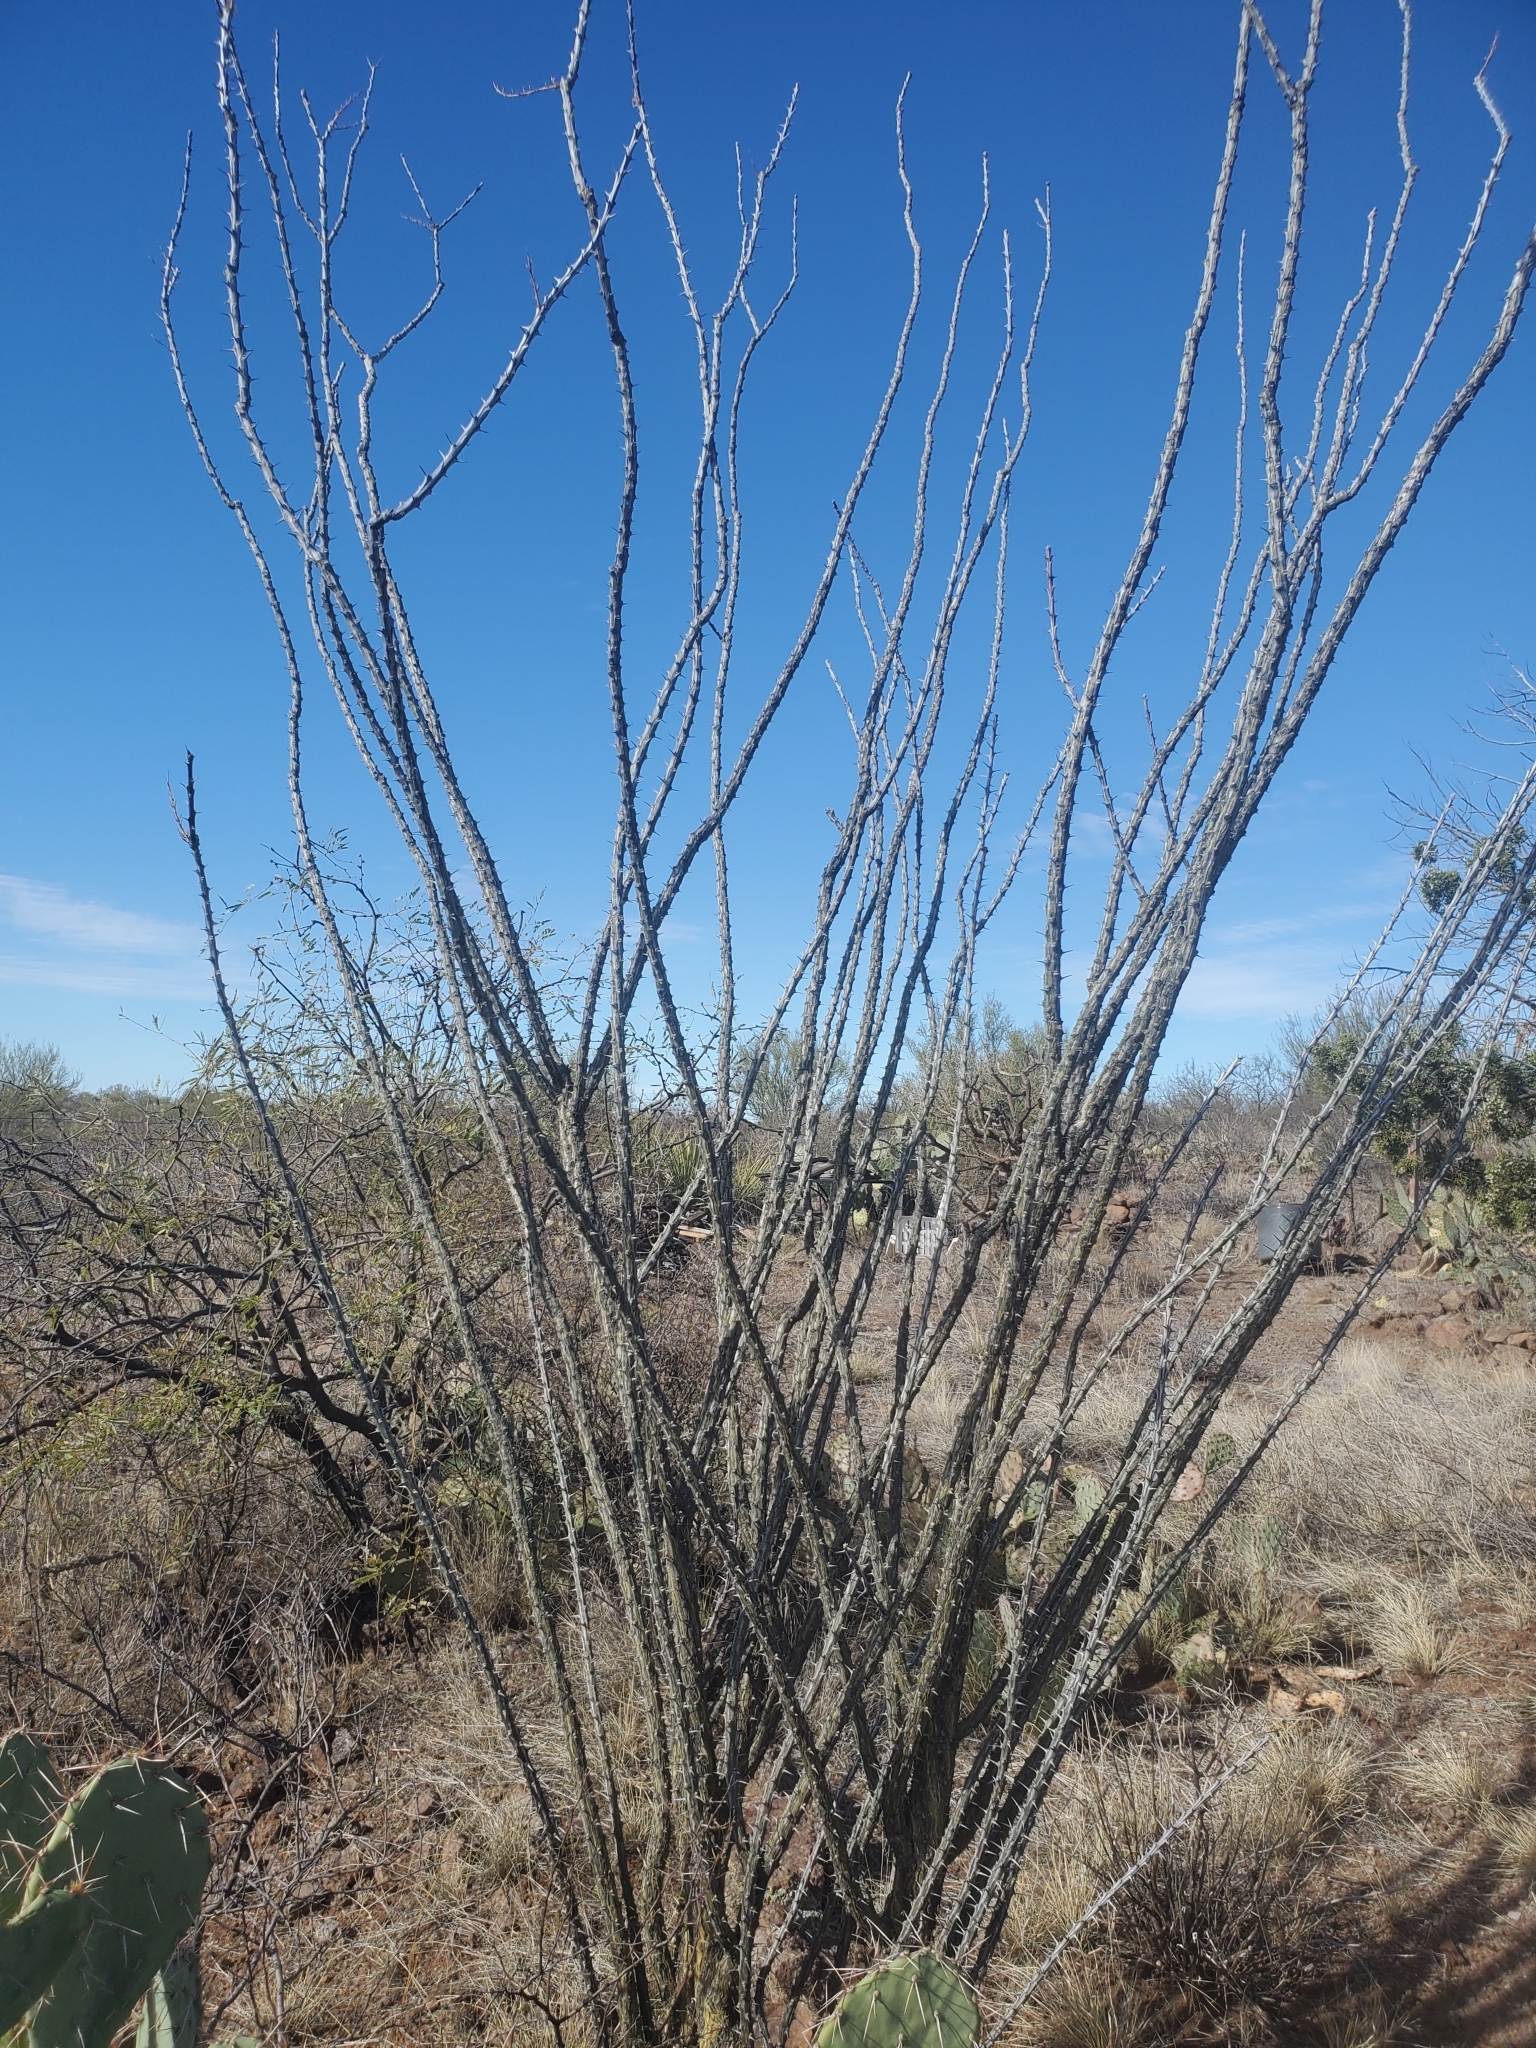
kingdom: Plantae
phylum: Tracheophyta
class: Magnoliopsida
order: Ericales
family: Fouquieriaceae
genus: Fouquieria
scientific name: Fouquieria splendens
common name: Vine-cactus
